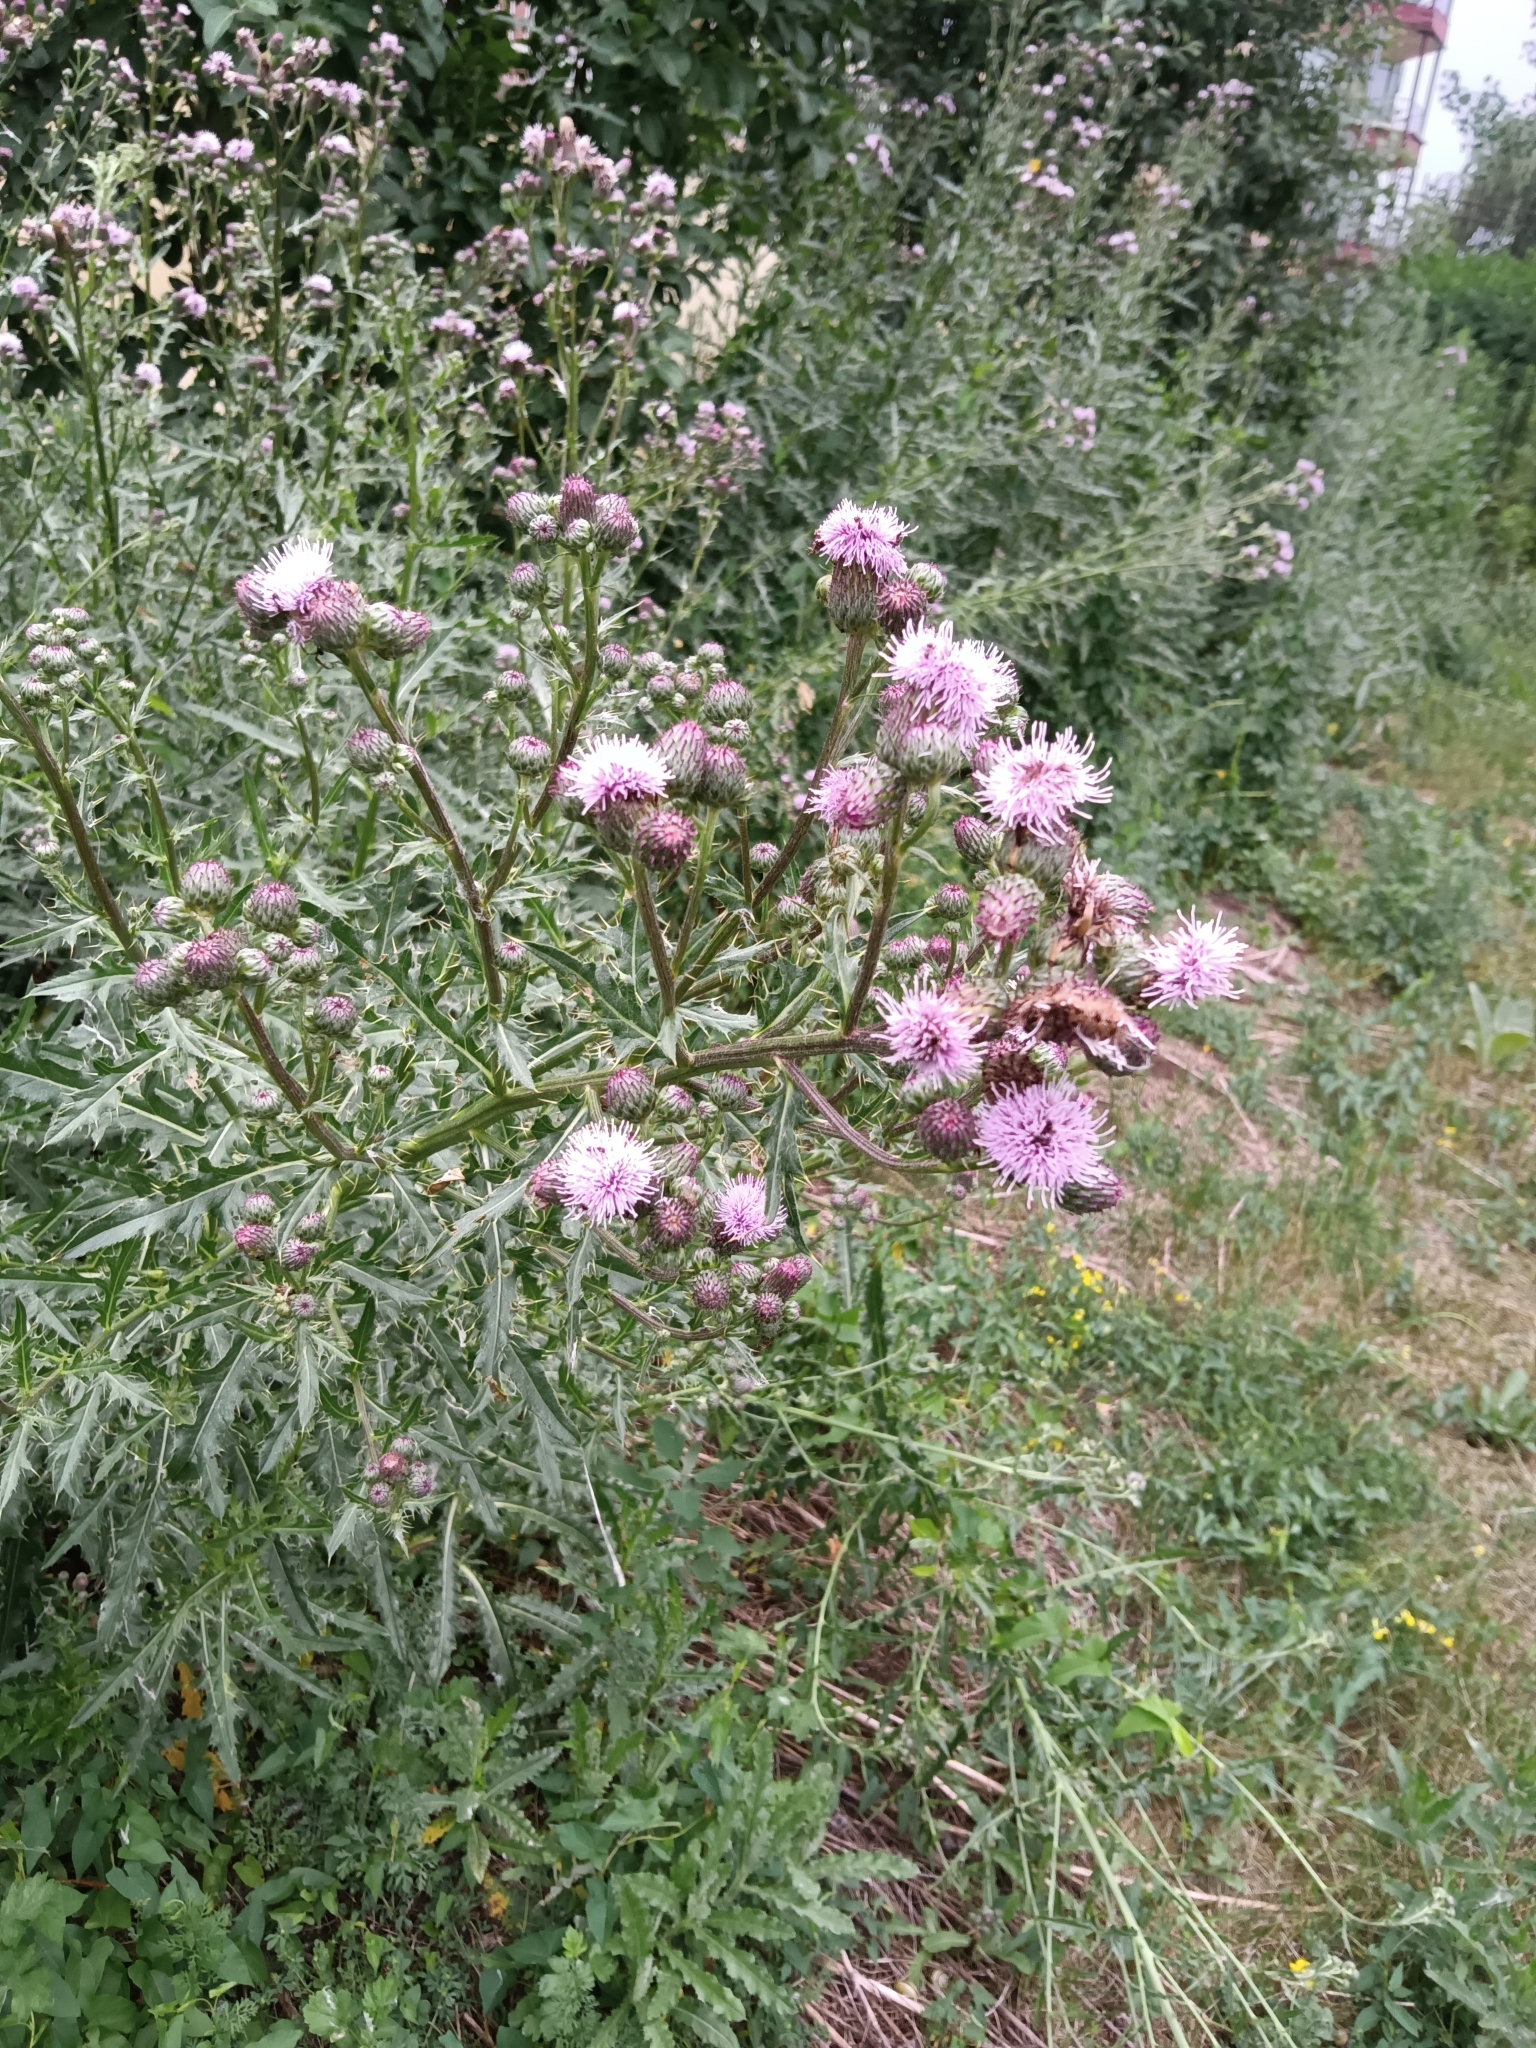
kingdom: Plantae
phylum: Tracheophyta
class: Magnoliopsida
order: Asterales
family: Asteraceae
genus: Cirsium
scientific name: Cirsium arvense
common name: Creeping thistle
